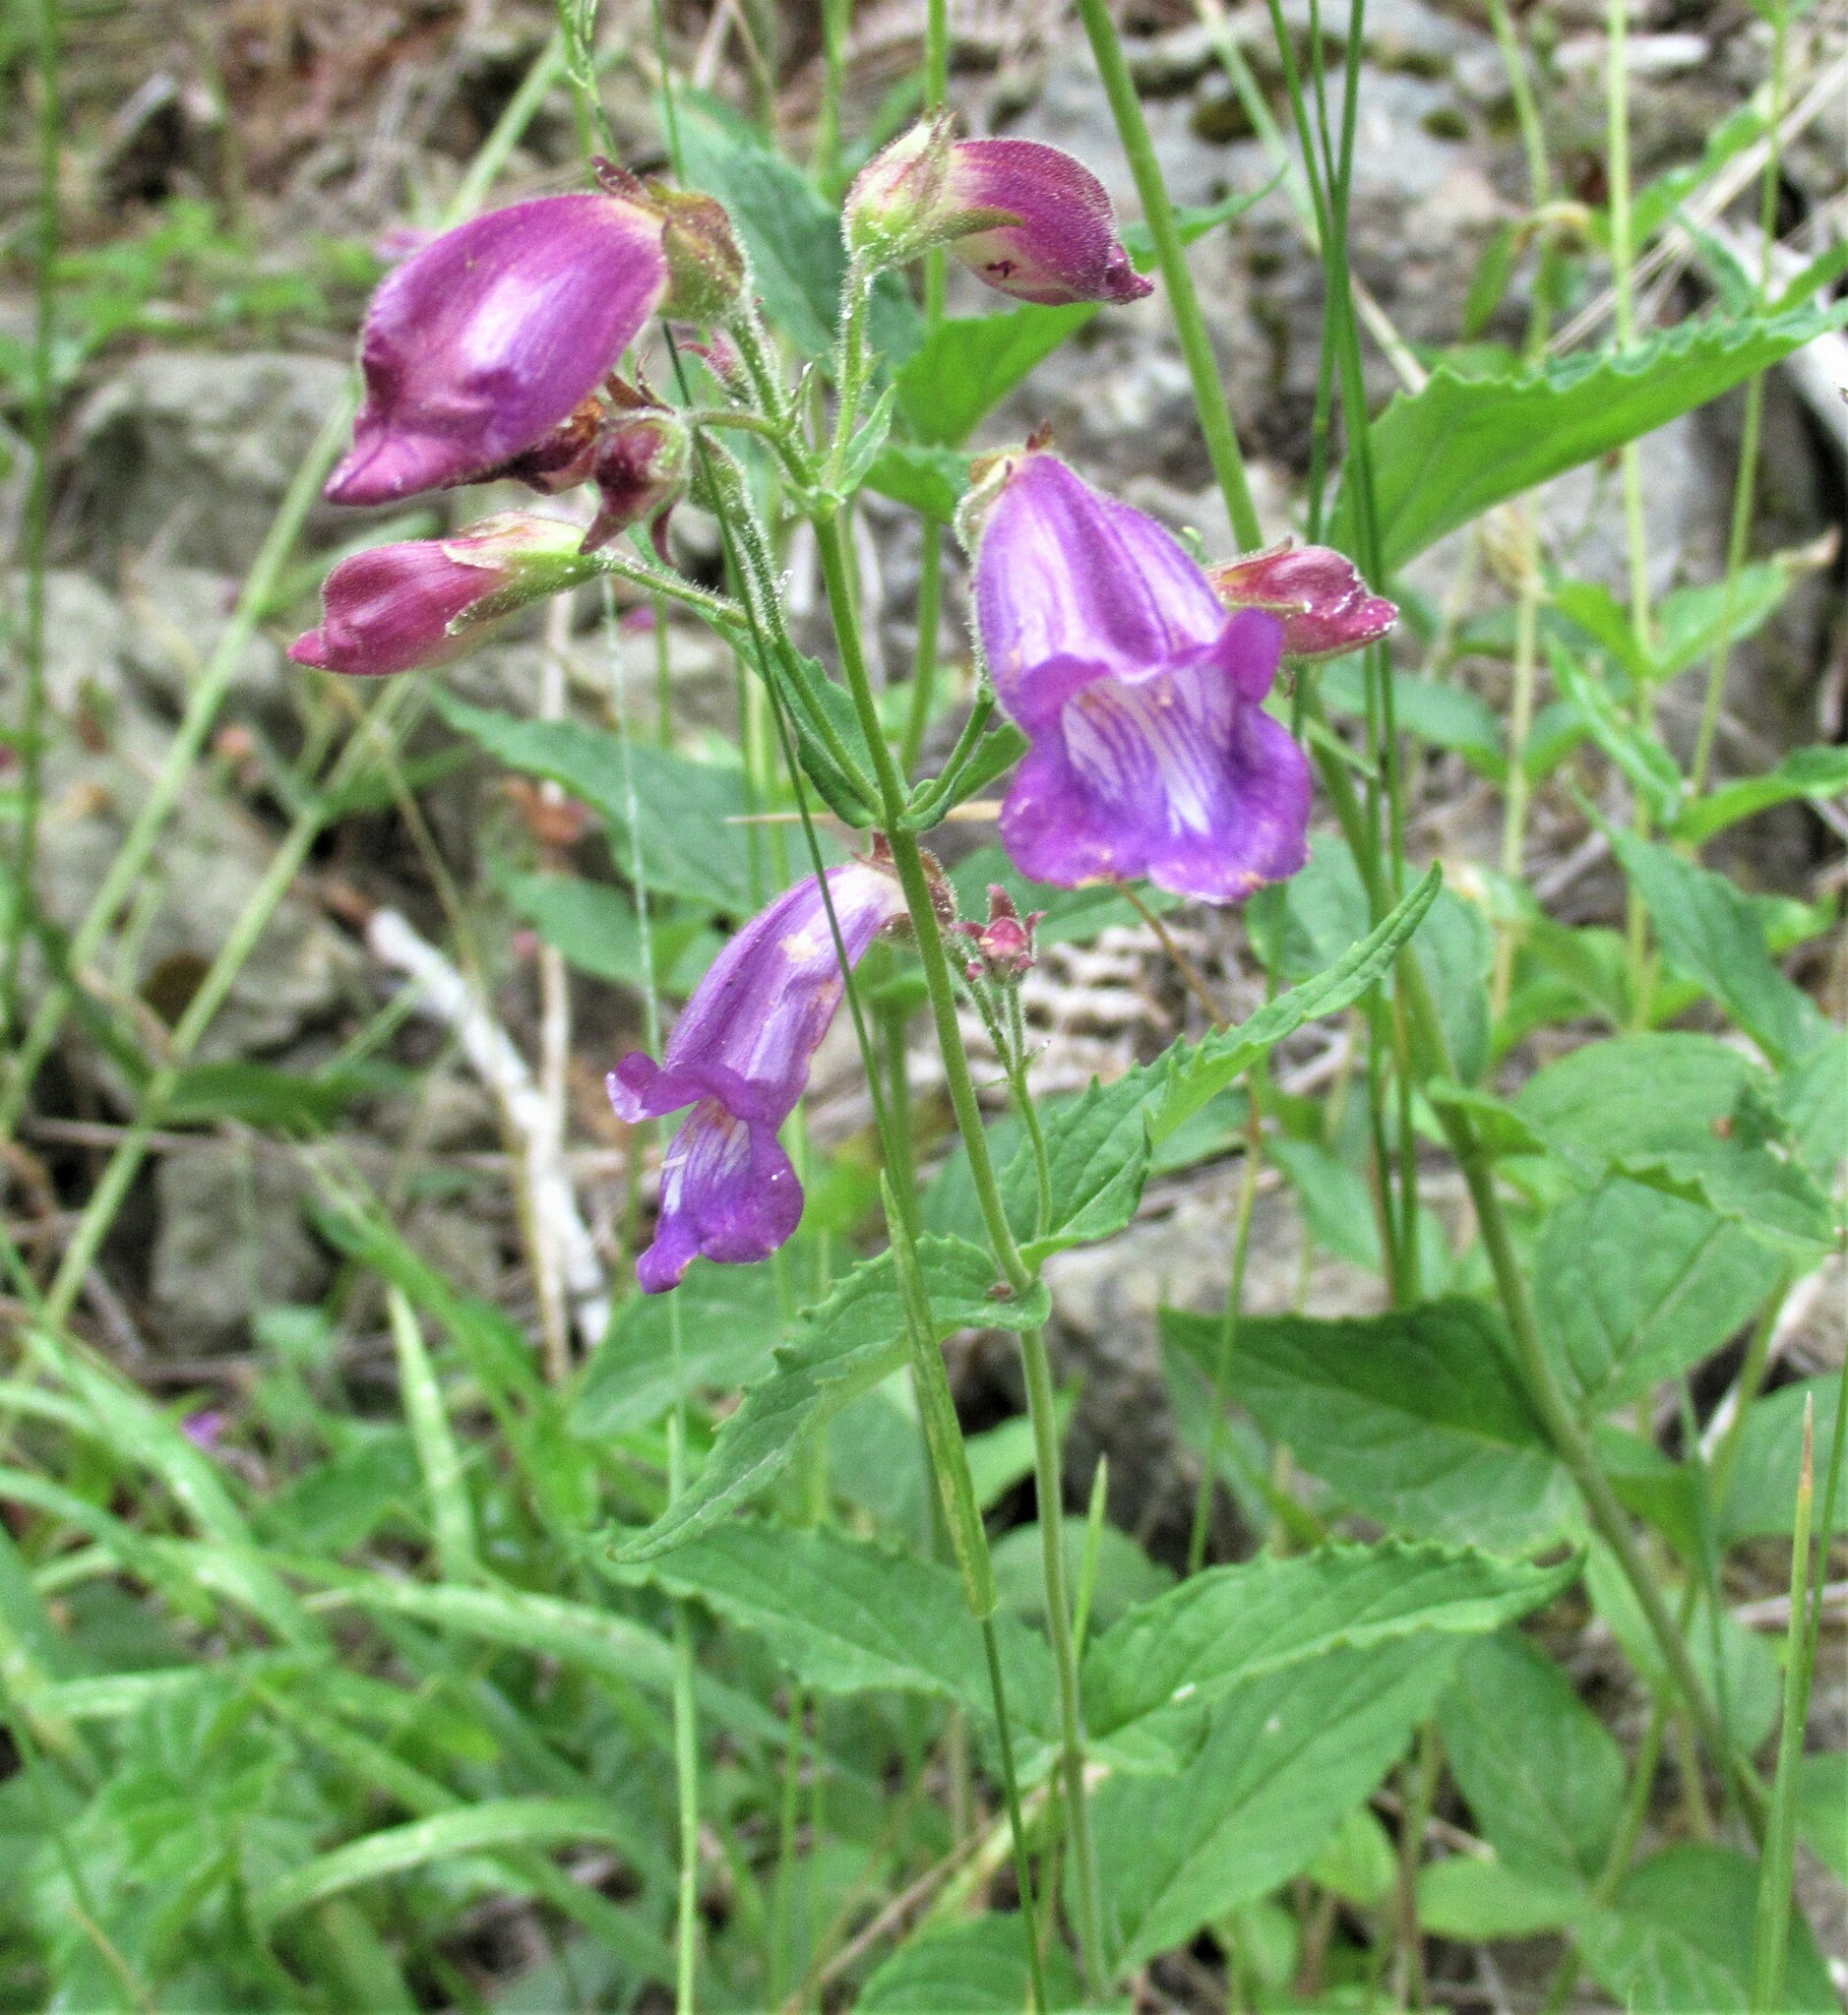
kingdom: Plantae
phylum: Tracheophyta
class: Magnoliopsida
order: Lamiales
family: Plantaginaceae
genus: Nothochelone
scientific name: Nothochelone nemorosa
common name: Woodland beardtongue
